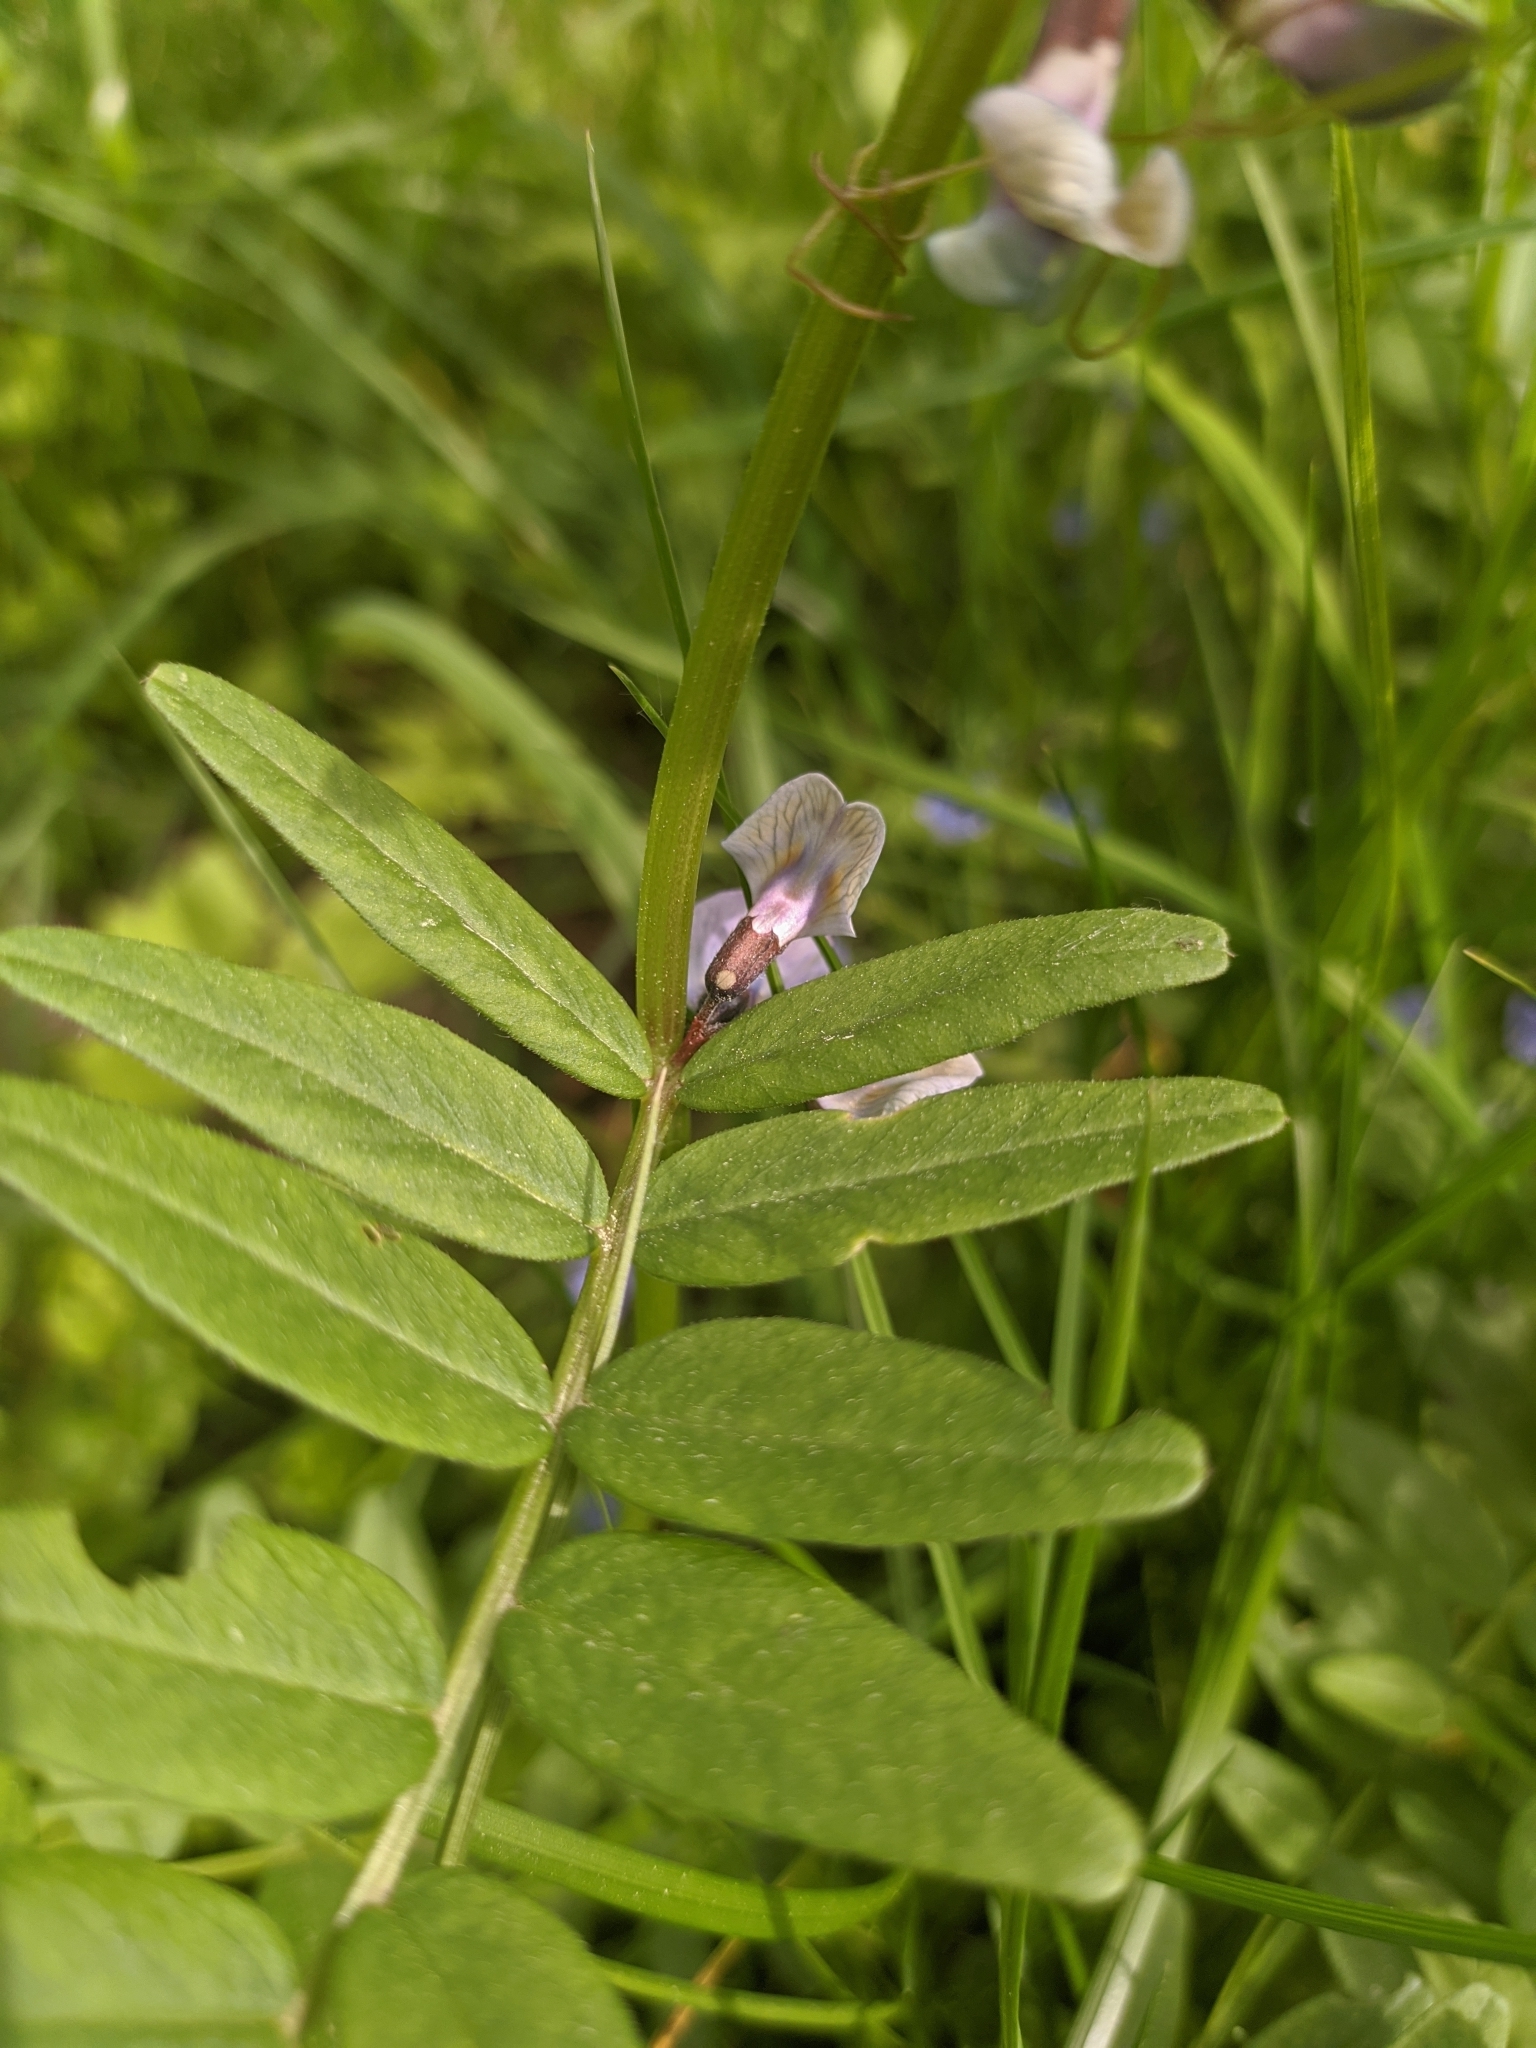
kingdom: Plantae
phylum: Tracheophyta
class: Magnoliopsida
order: Fabales
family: Fabaceae
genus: Vicia
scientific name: Vicia sepium
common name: Bush vetch
